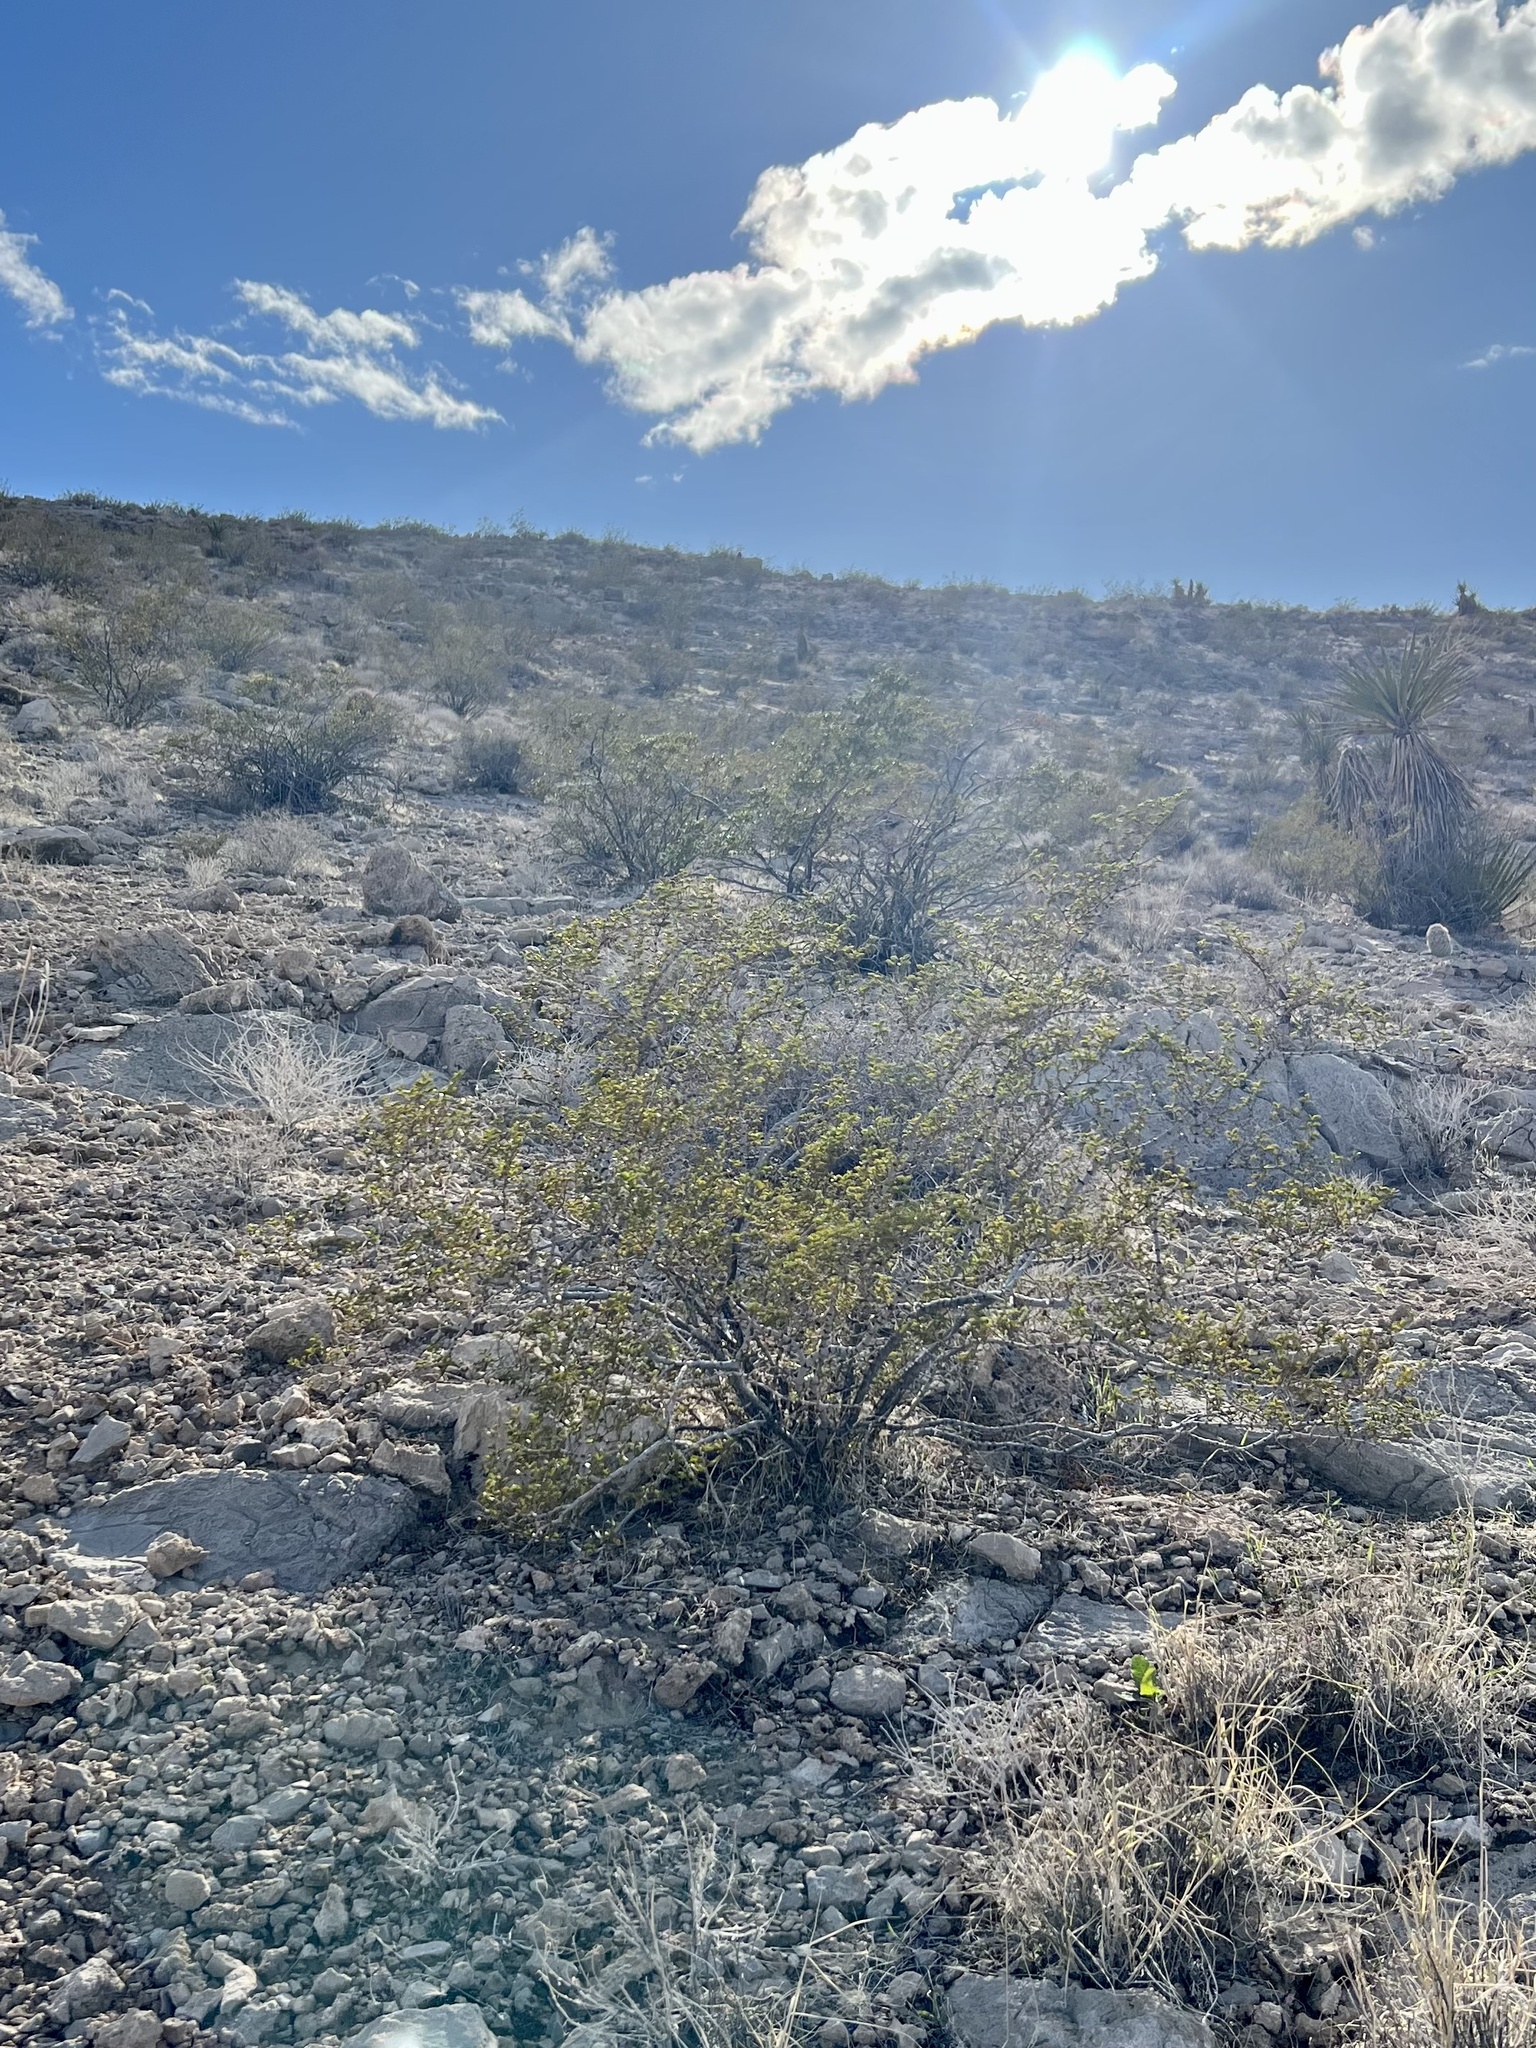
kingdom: Plantae
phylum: Tracheophyta
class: Magnoliopsida
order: Zygophyllales
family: Zygophyllaceae
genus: Larrea
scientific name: Larrea tridentata
